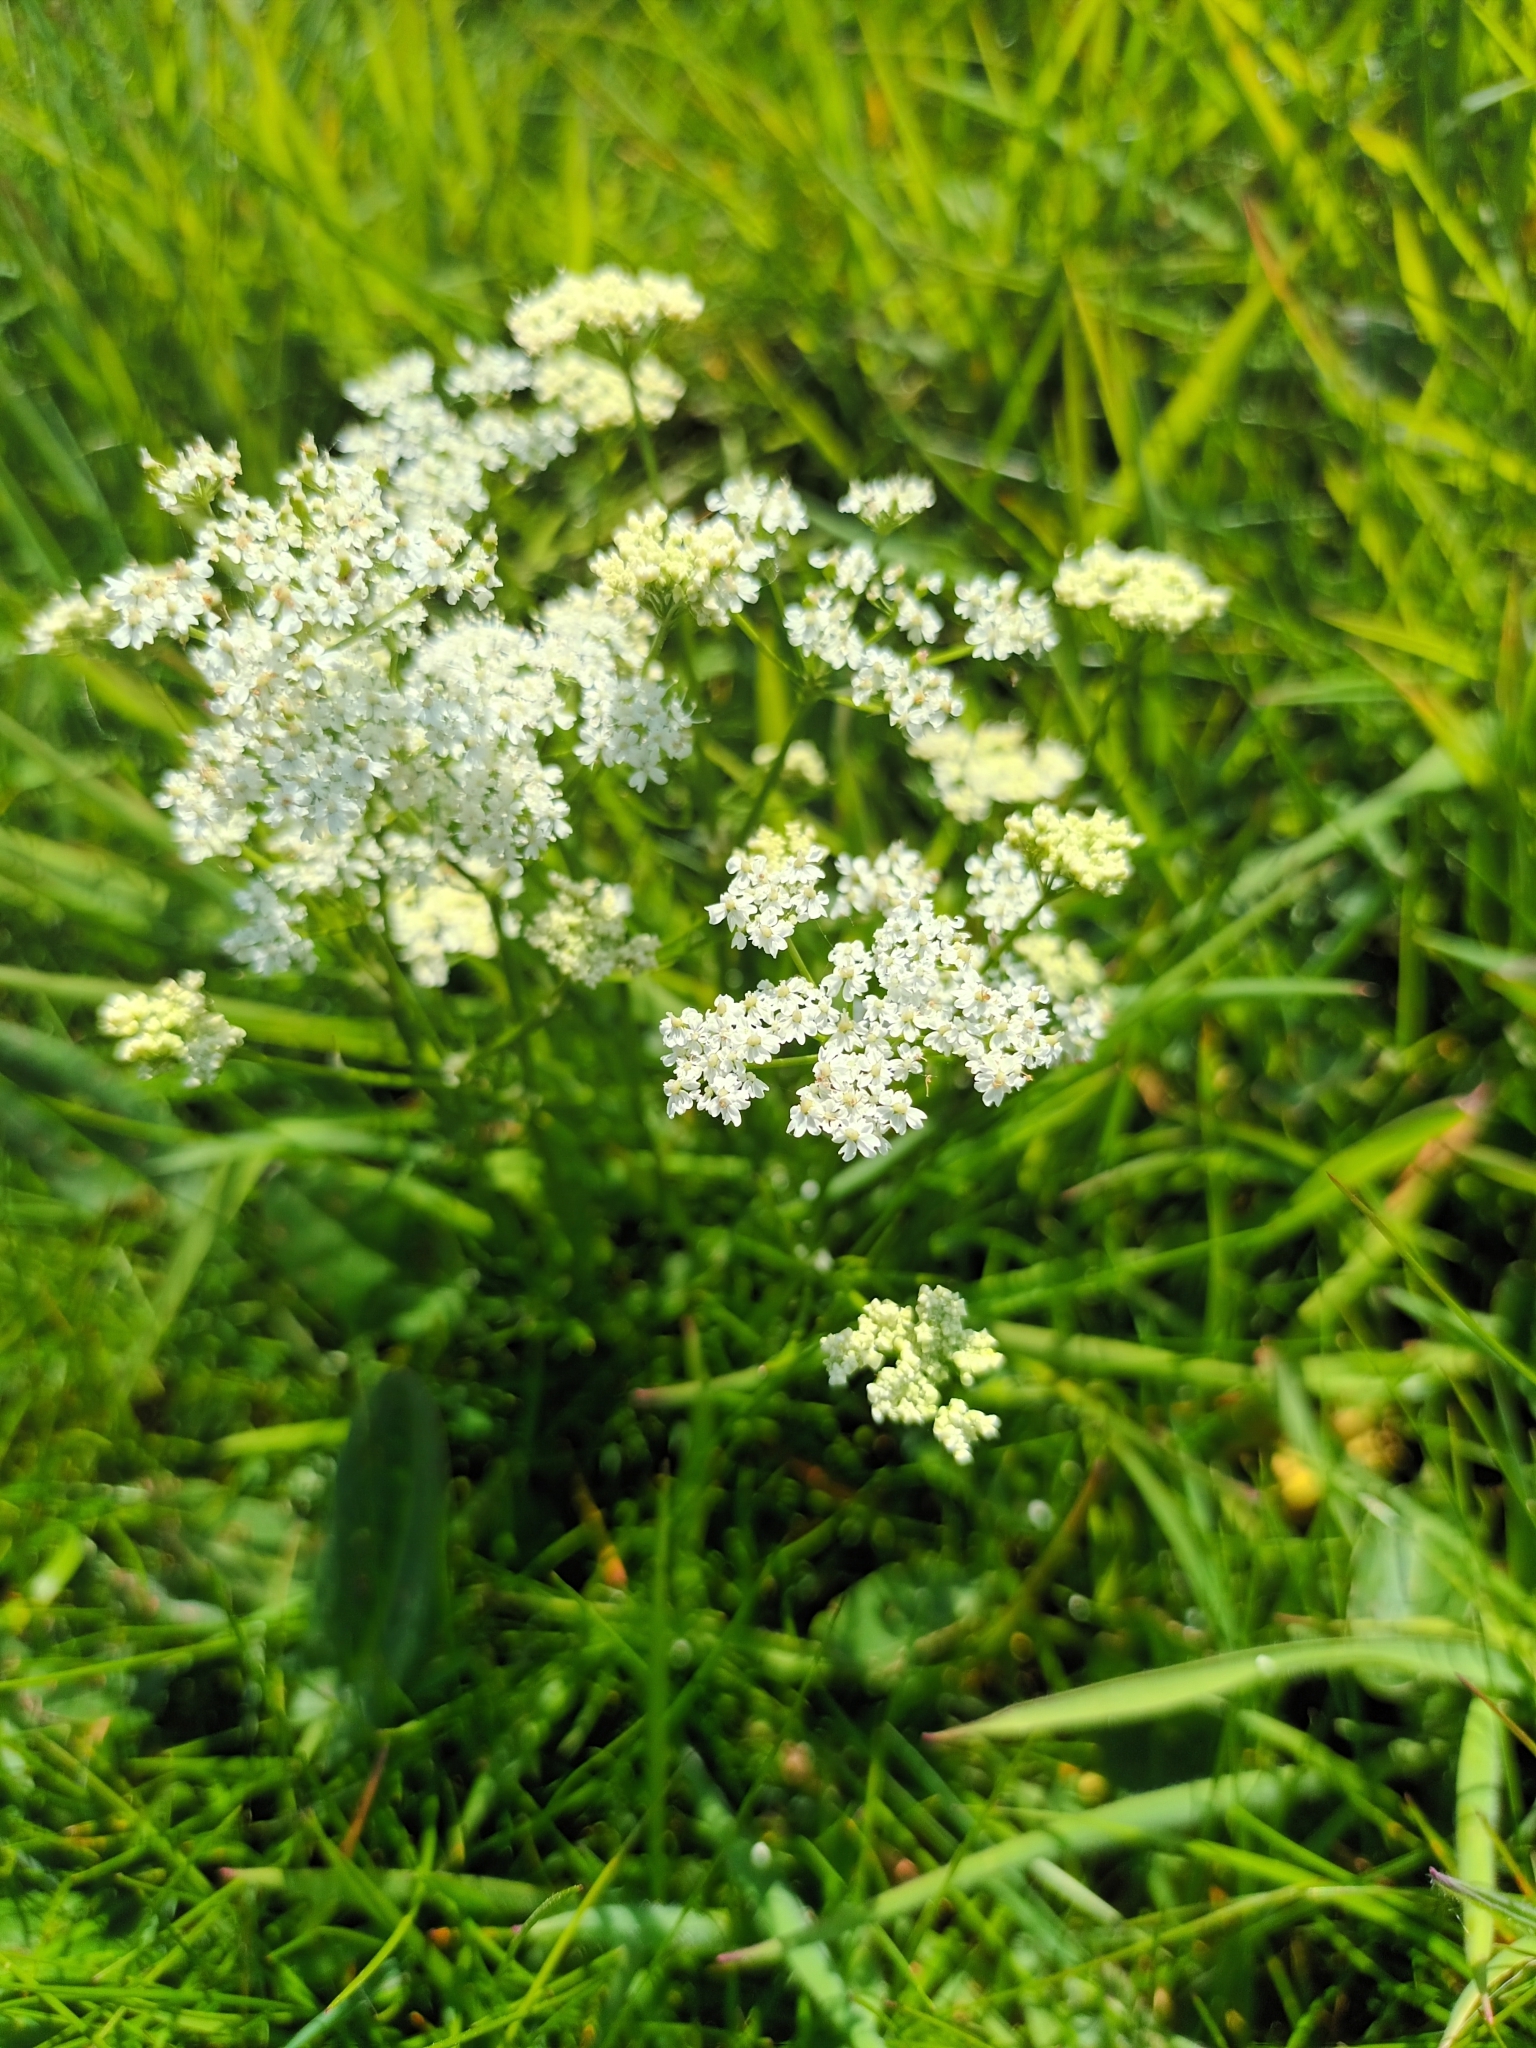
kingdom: Plantae
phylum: Tracheophyta
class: Magnoliopsida
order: Apiales
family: Apiaceae
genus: Conopodium
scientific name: Conopodium majus
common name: Pignut
